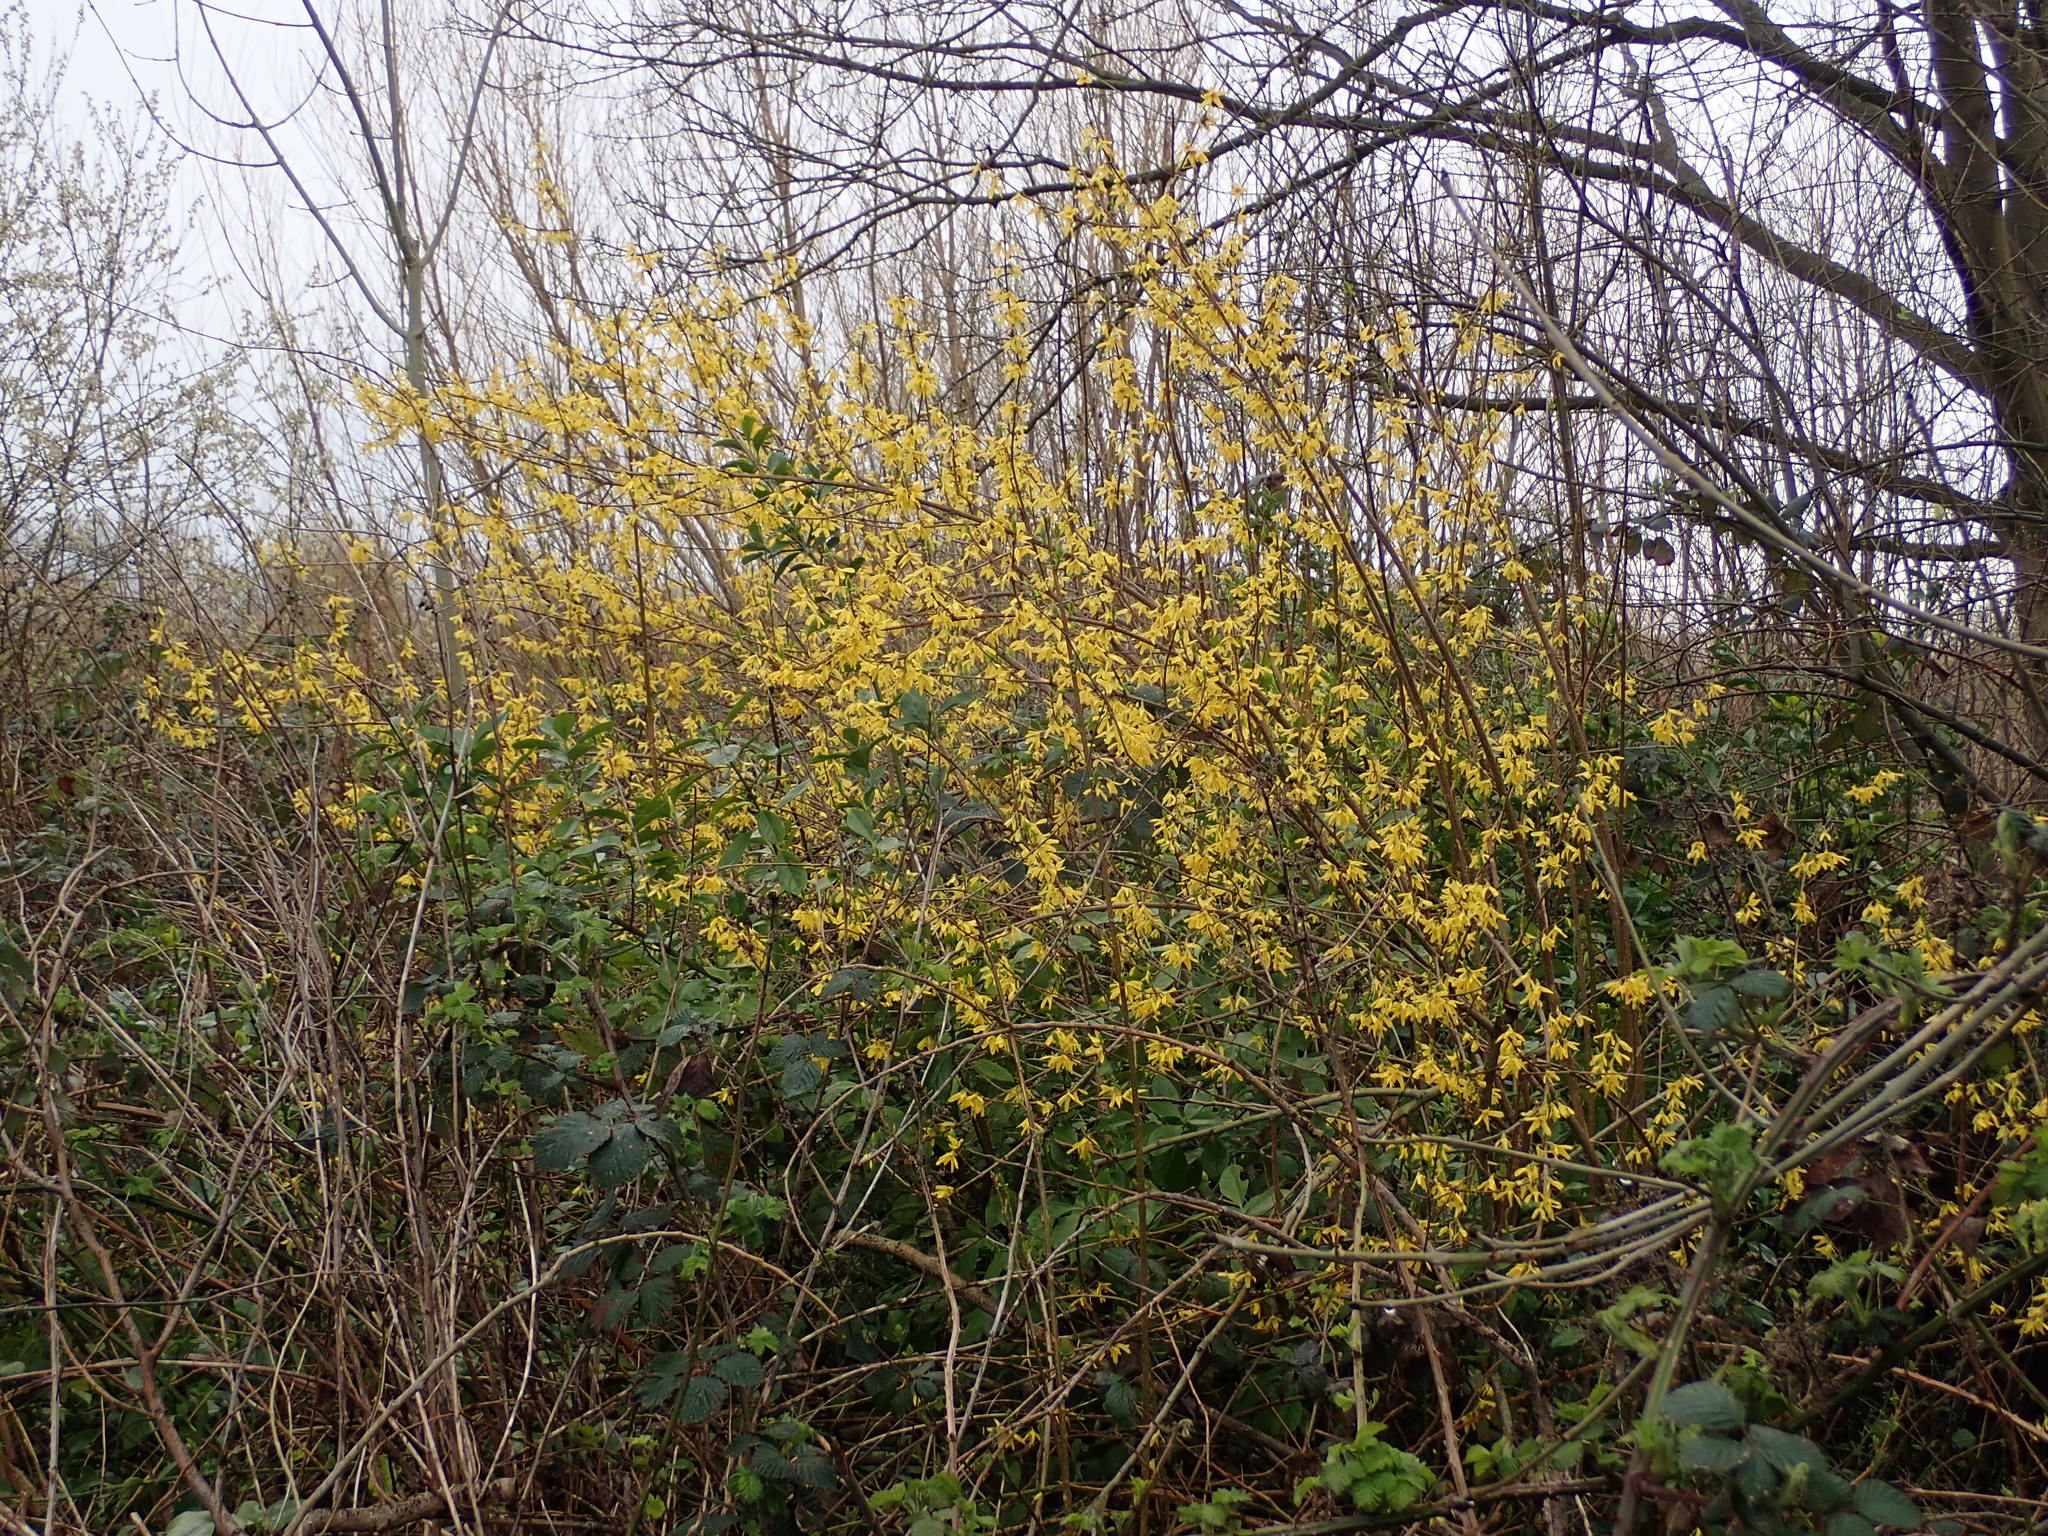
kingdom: Plantae
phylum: Tracheophyta
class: Magnoliopsida
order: Lamiales
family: Oleaceae
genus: Forsythia
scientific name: Forsythia intermedia
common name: Forsythia
